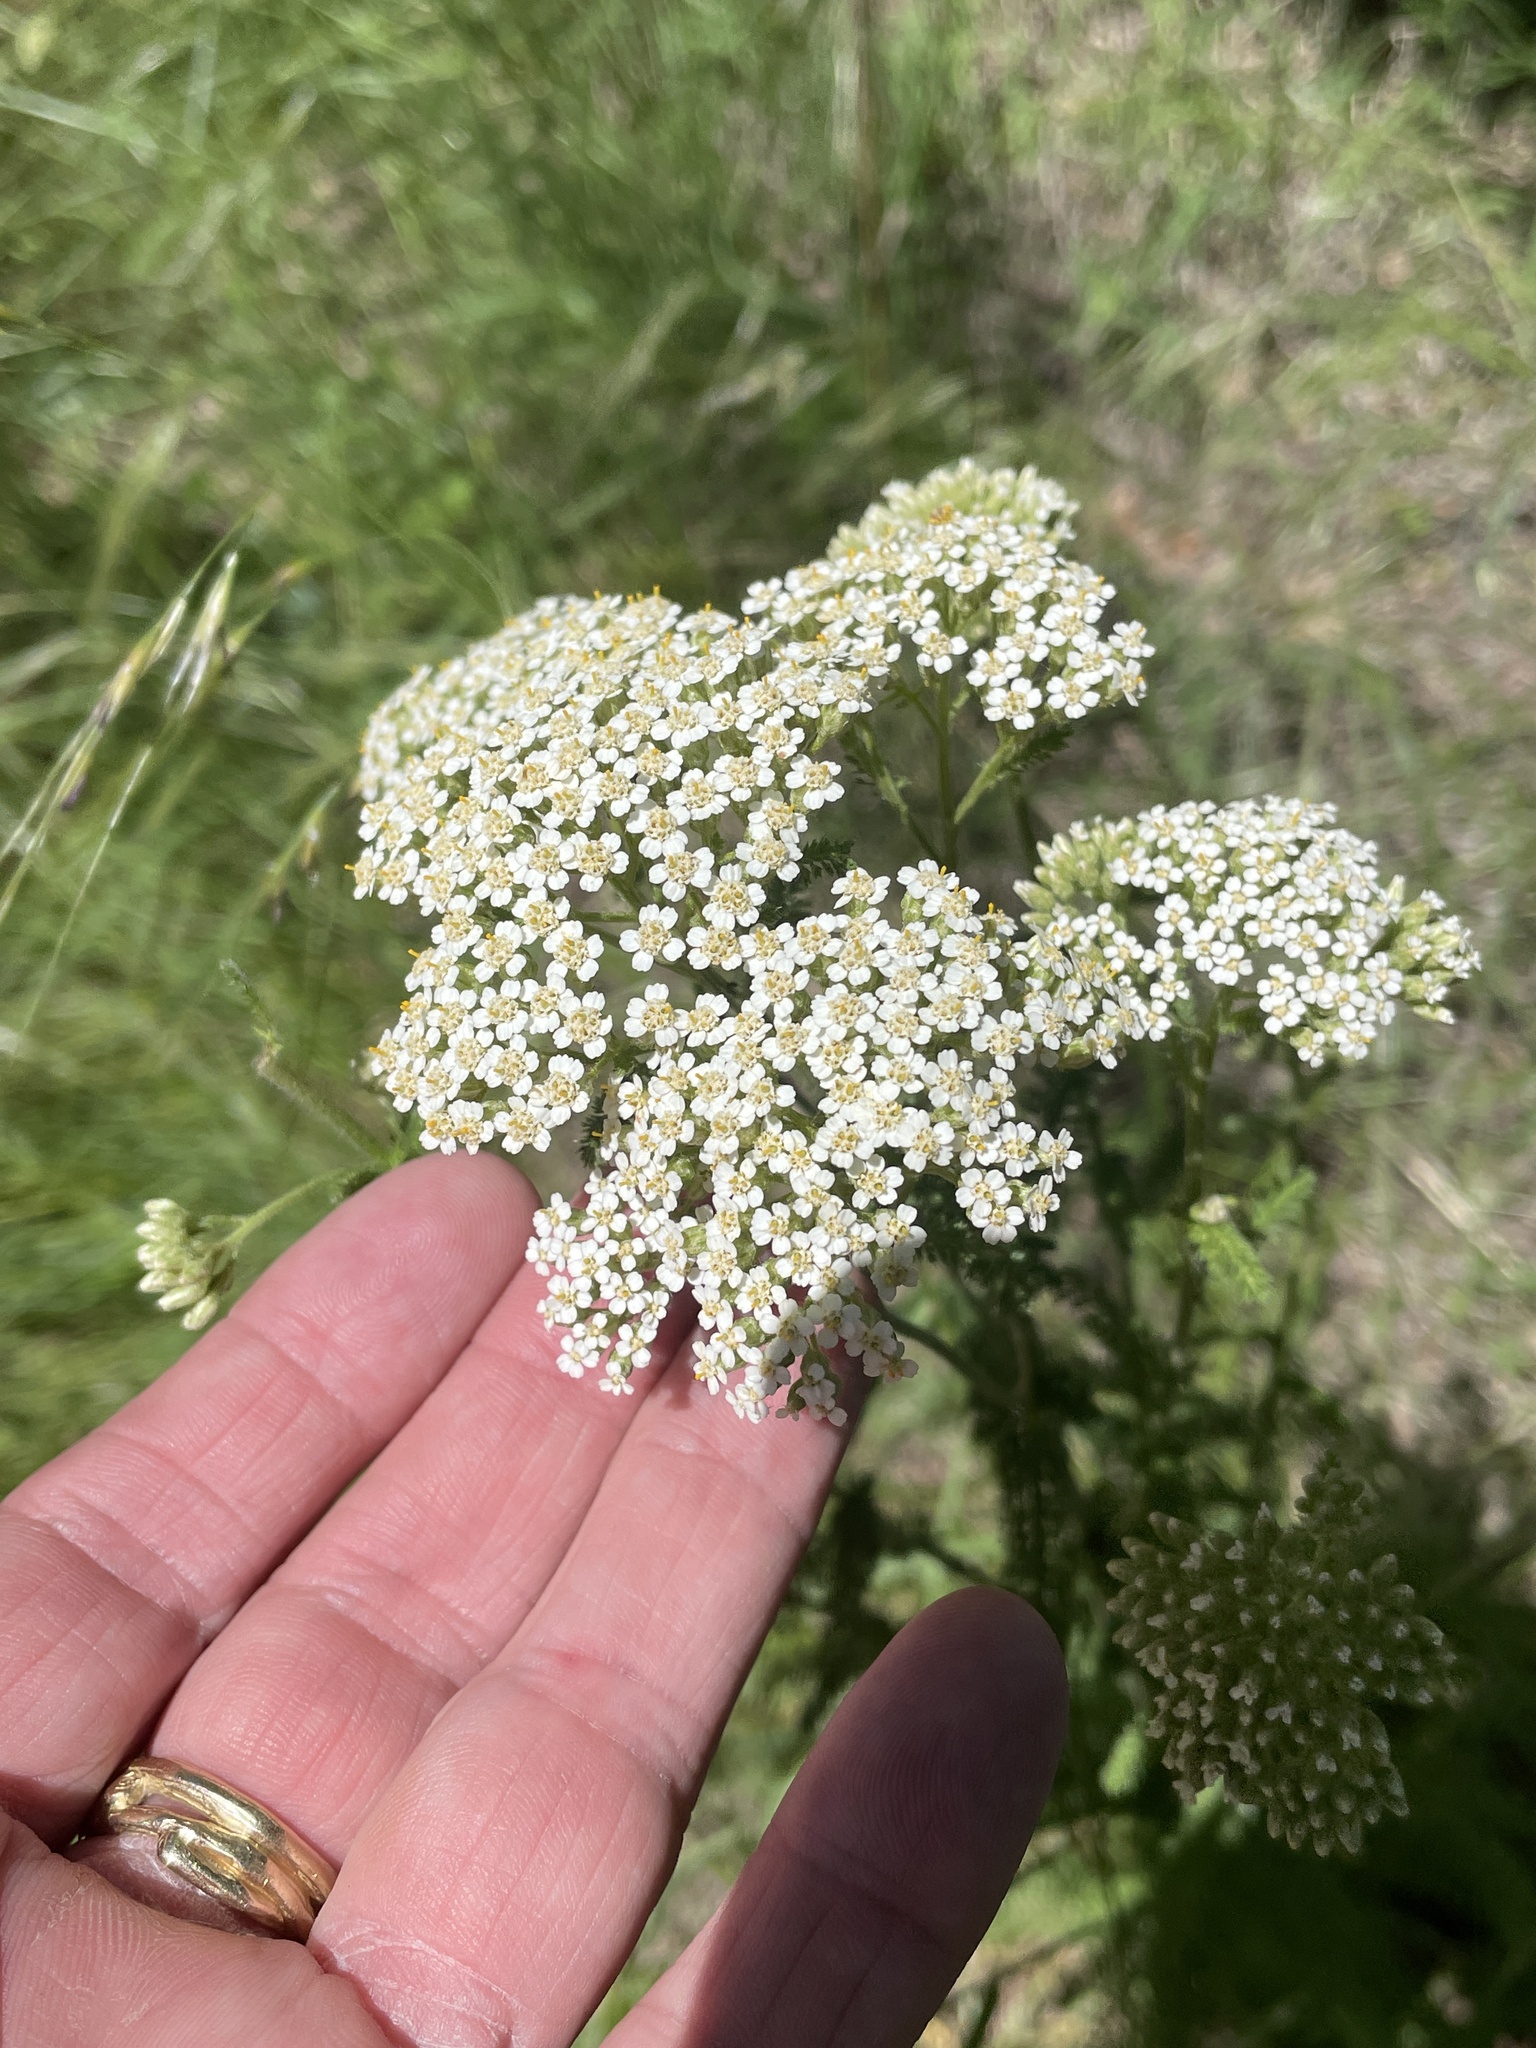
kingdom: Plantae
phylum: Tracheophyta
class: Magnoliopsida
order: Asterales
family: Asteraceae
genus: Achillea
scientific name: Achillea millefolium
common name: Yarrow
